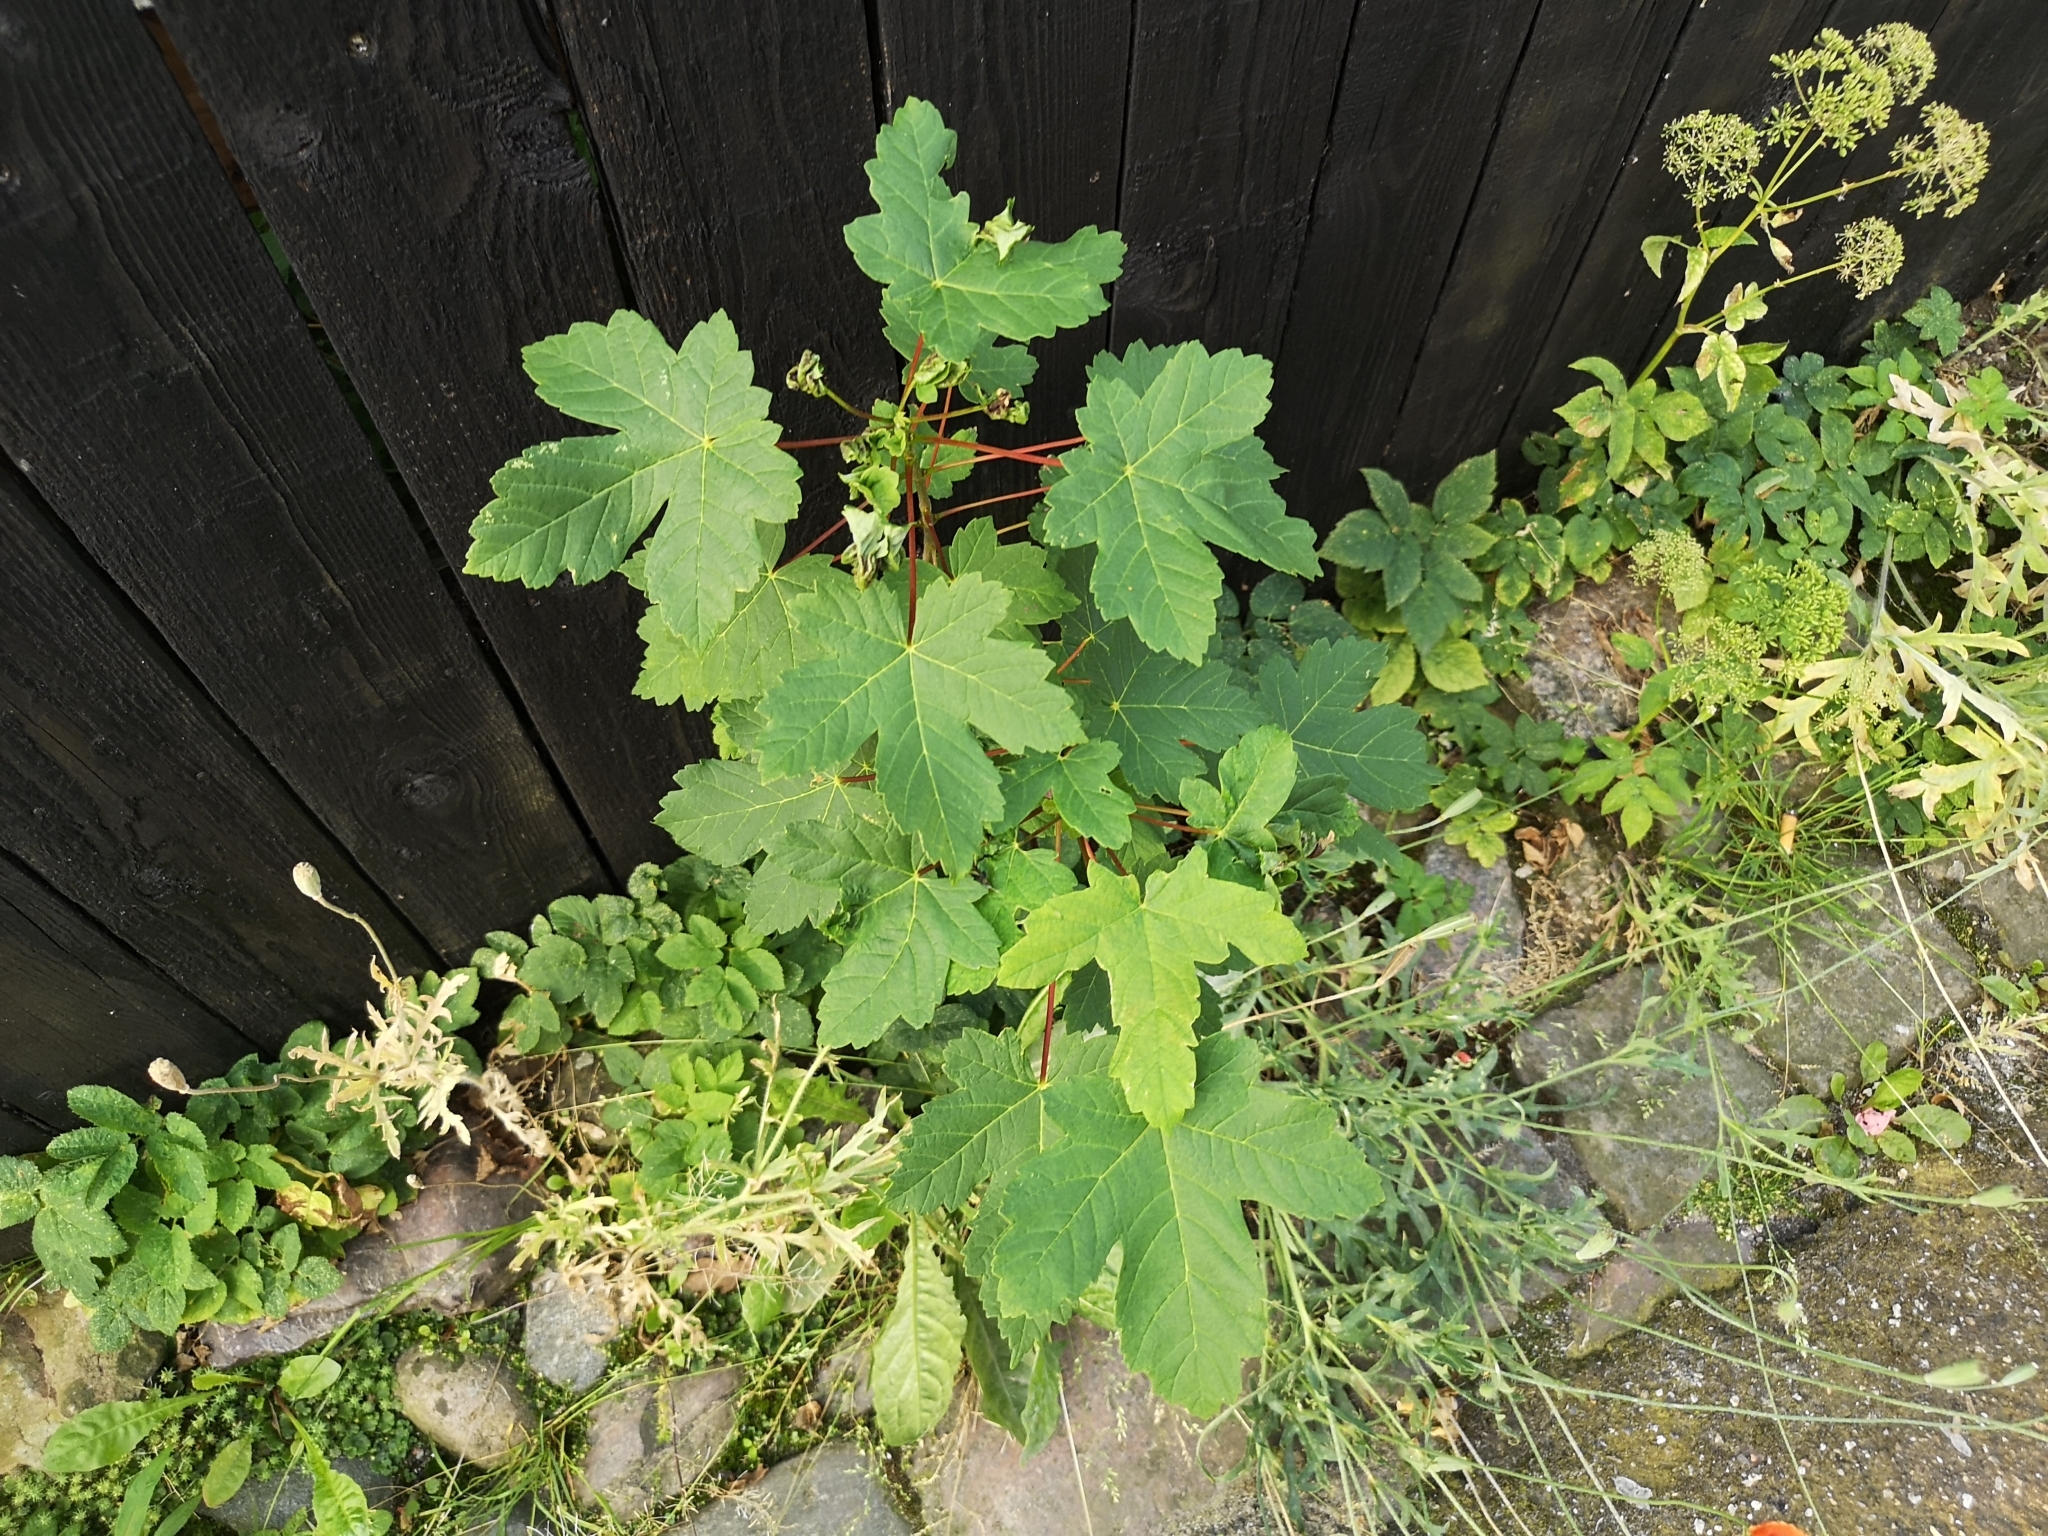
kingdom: Plantae
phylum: Tracheophyta
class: Magnoliopsida
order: Sapindales
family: Sapindaceae
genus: Acer
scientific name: Acer pseudoplatanus
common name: Sycamore
